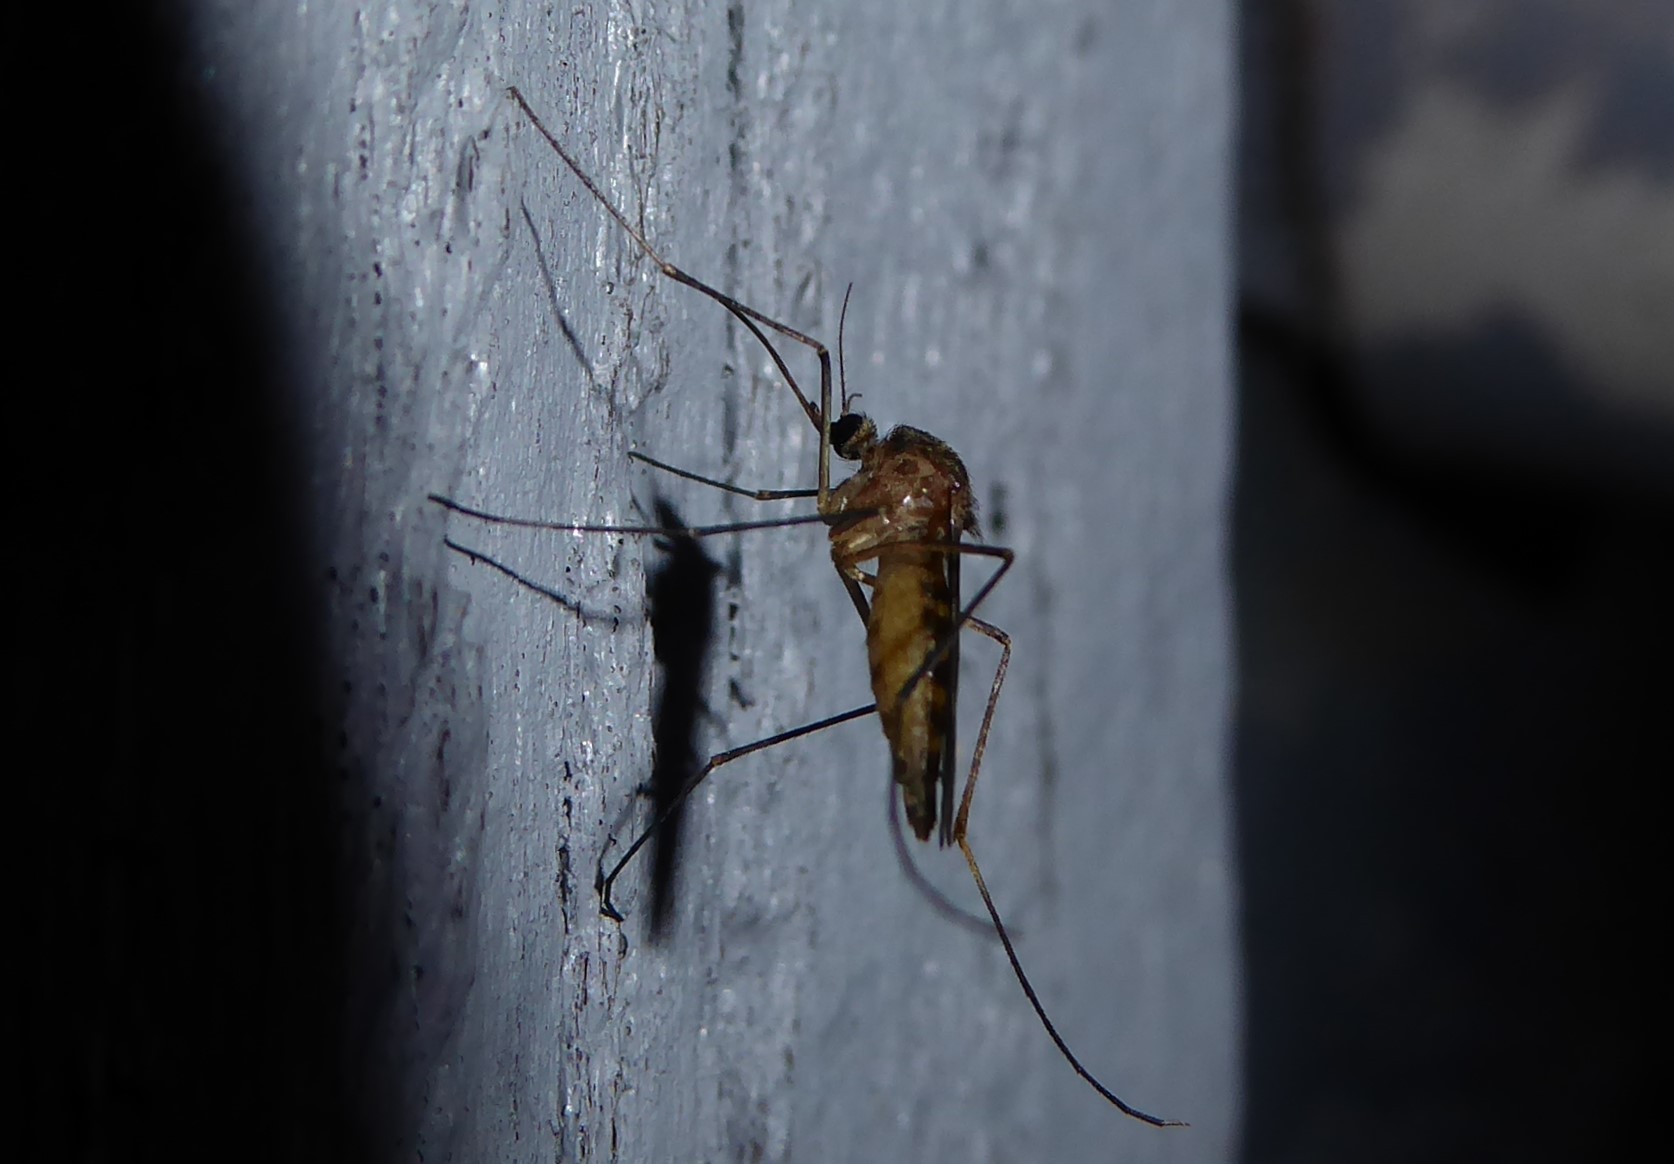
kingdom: Animalia
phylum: Arthropoda
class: Insecta
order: Diptera
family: Culicidae
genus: Culex
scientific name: Culex pervigilans
